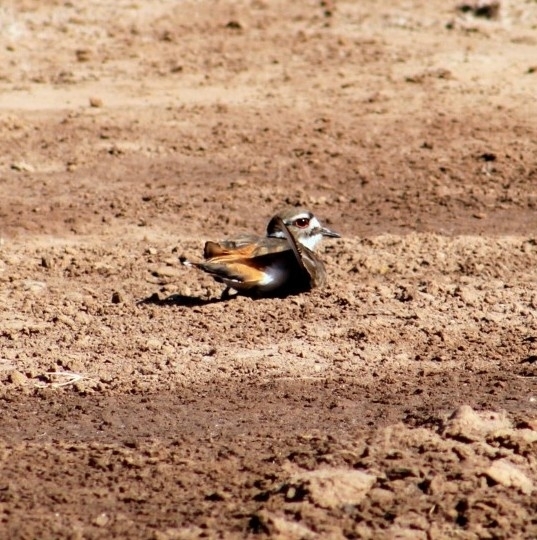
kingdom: Animalia
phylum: Chordata
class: Aves
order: Charadriiformes
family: Charadriidae
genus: Charadrius
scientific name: Charadrius vociferus
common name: Killdeer
